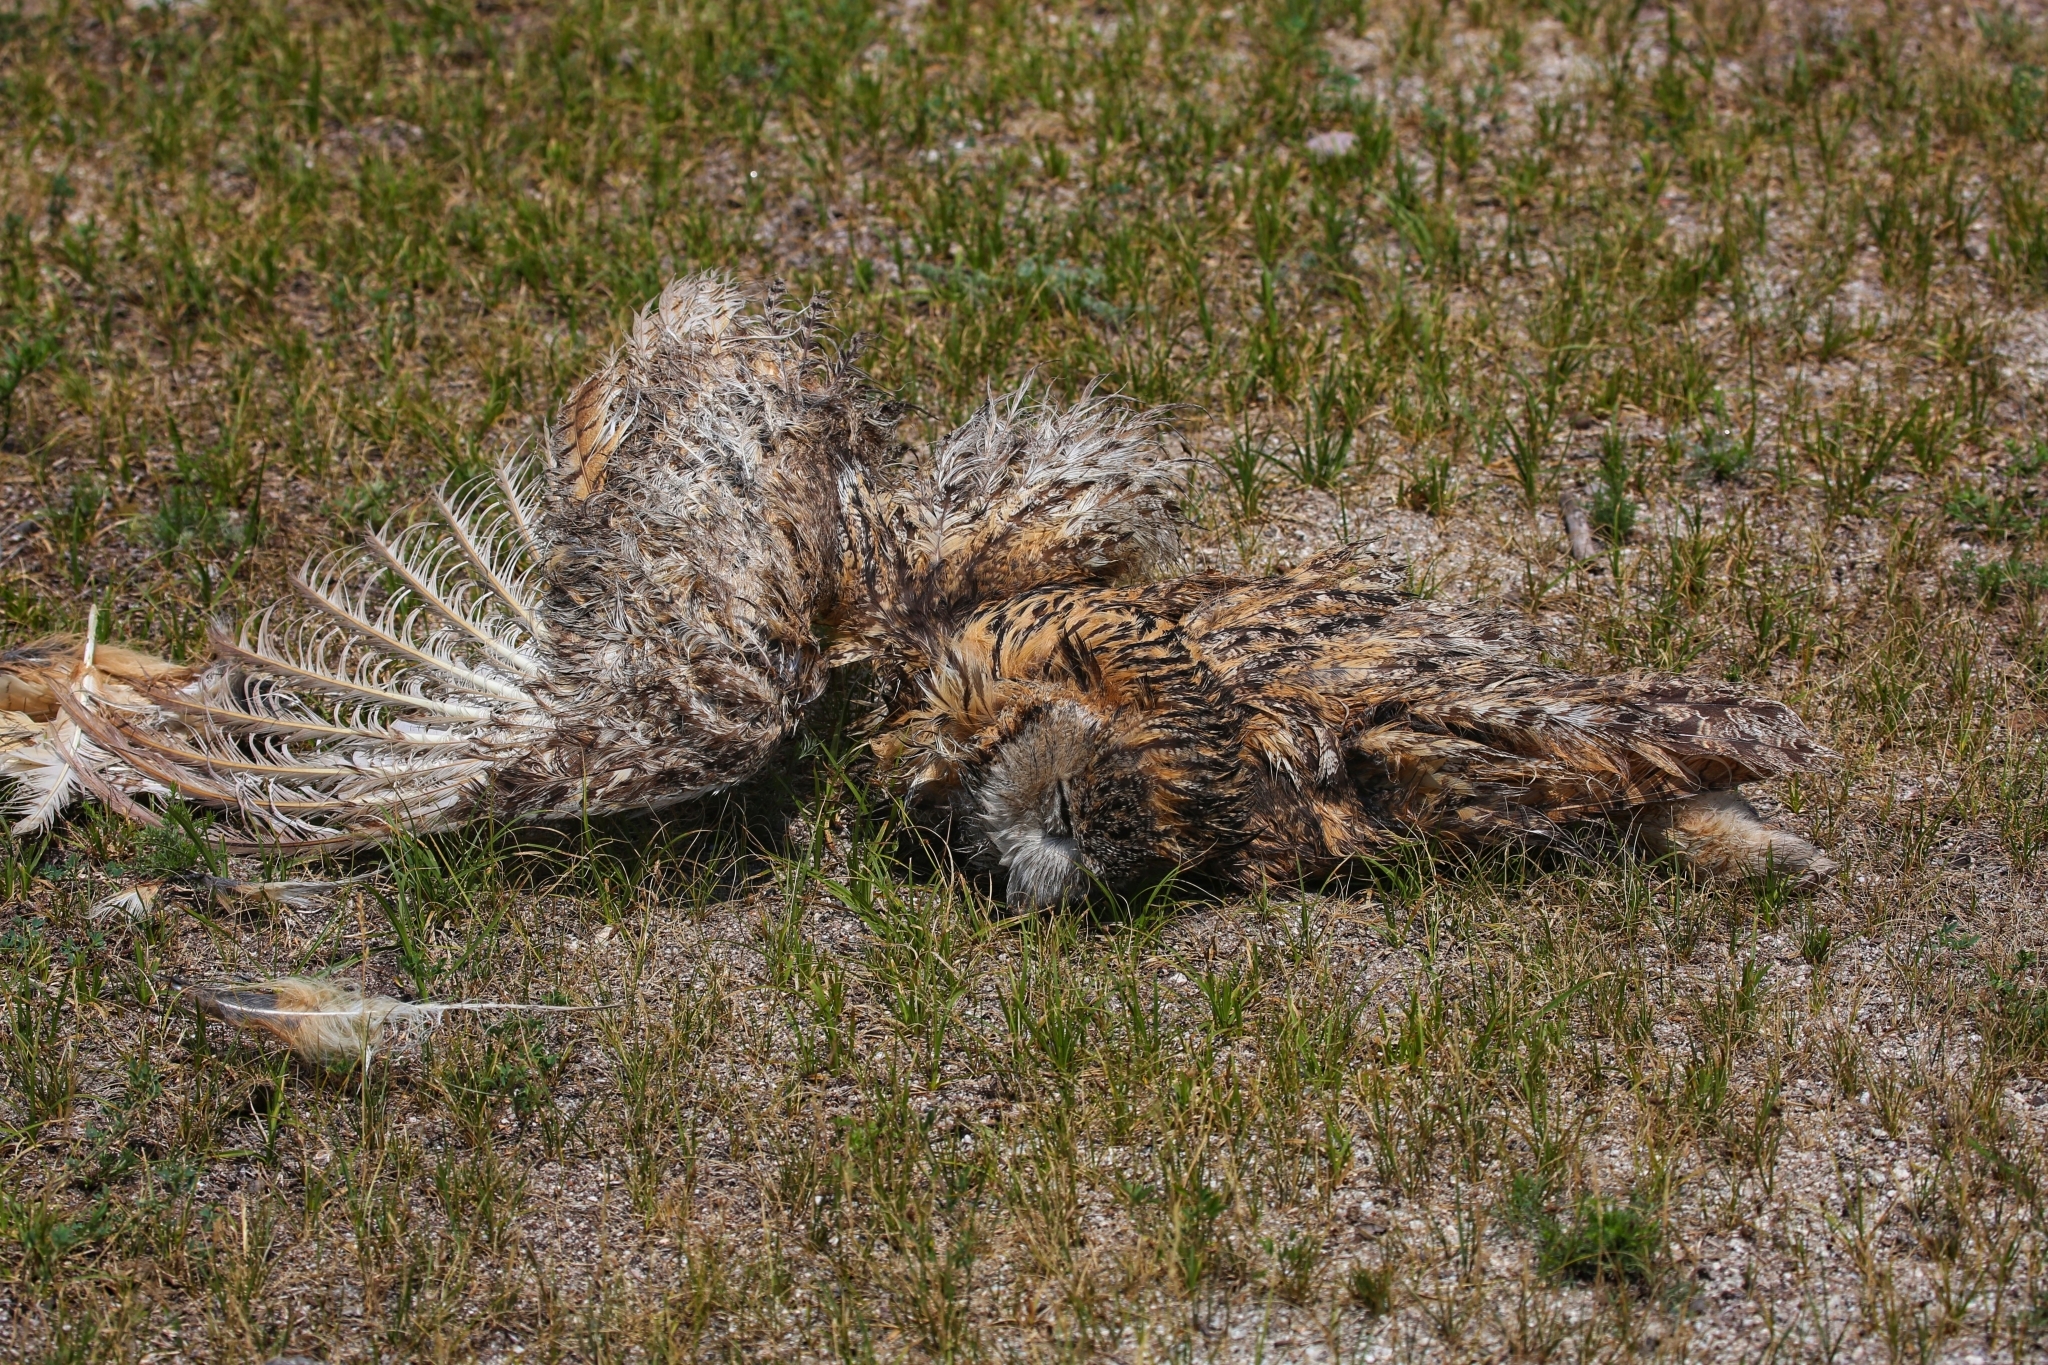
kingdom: Animalia
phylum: Chordata
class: Aves
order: Strigiformes
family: Strigidae
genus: Bubo
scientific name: Bubo bubo
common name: Eurasian eagle-owl
